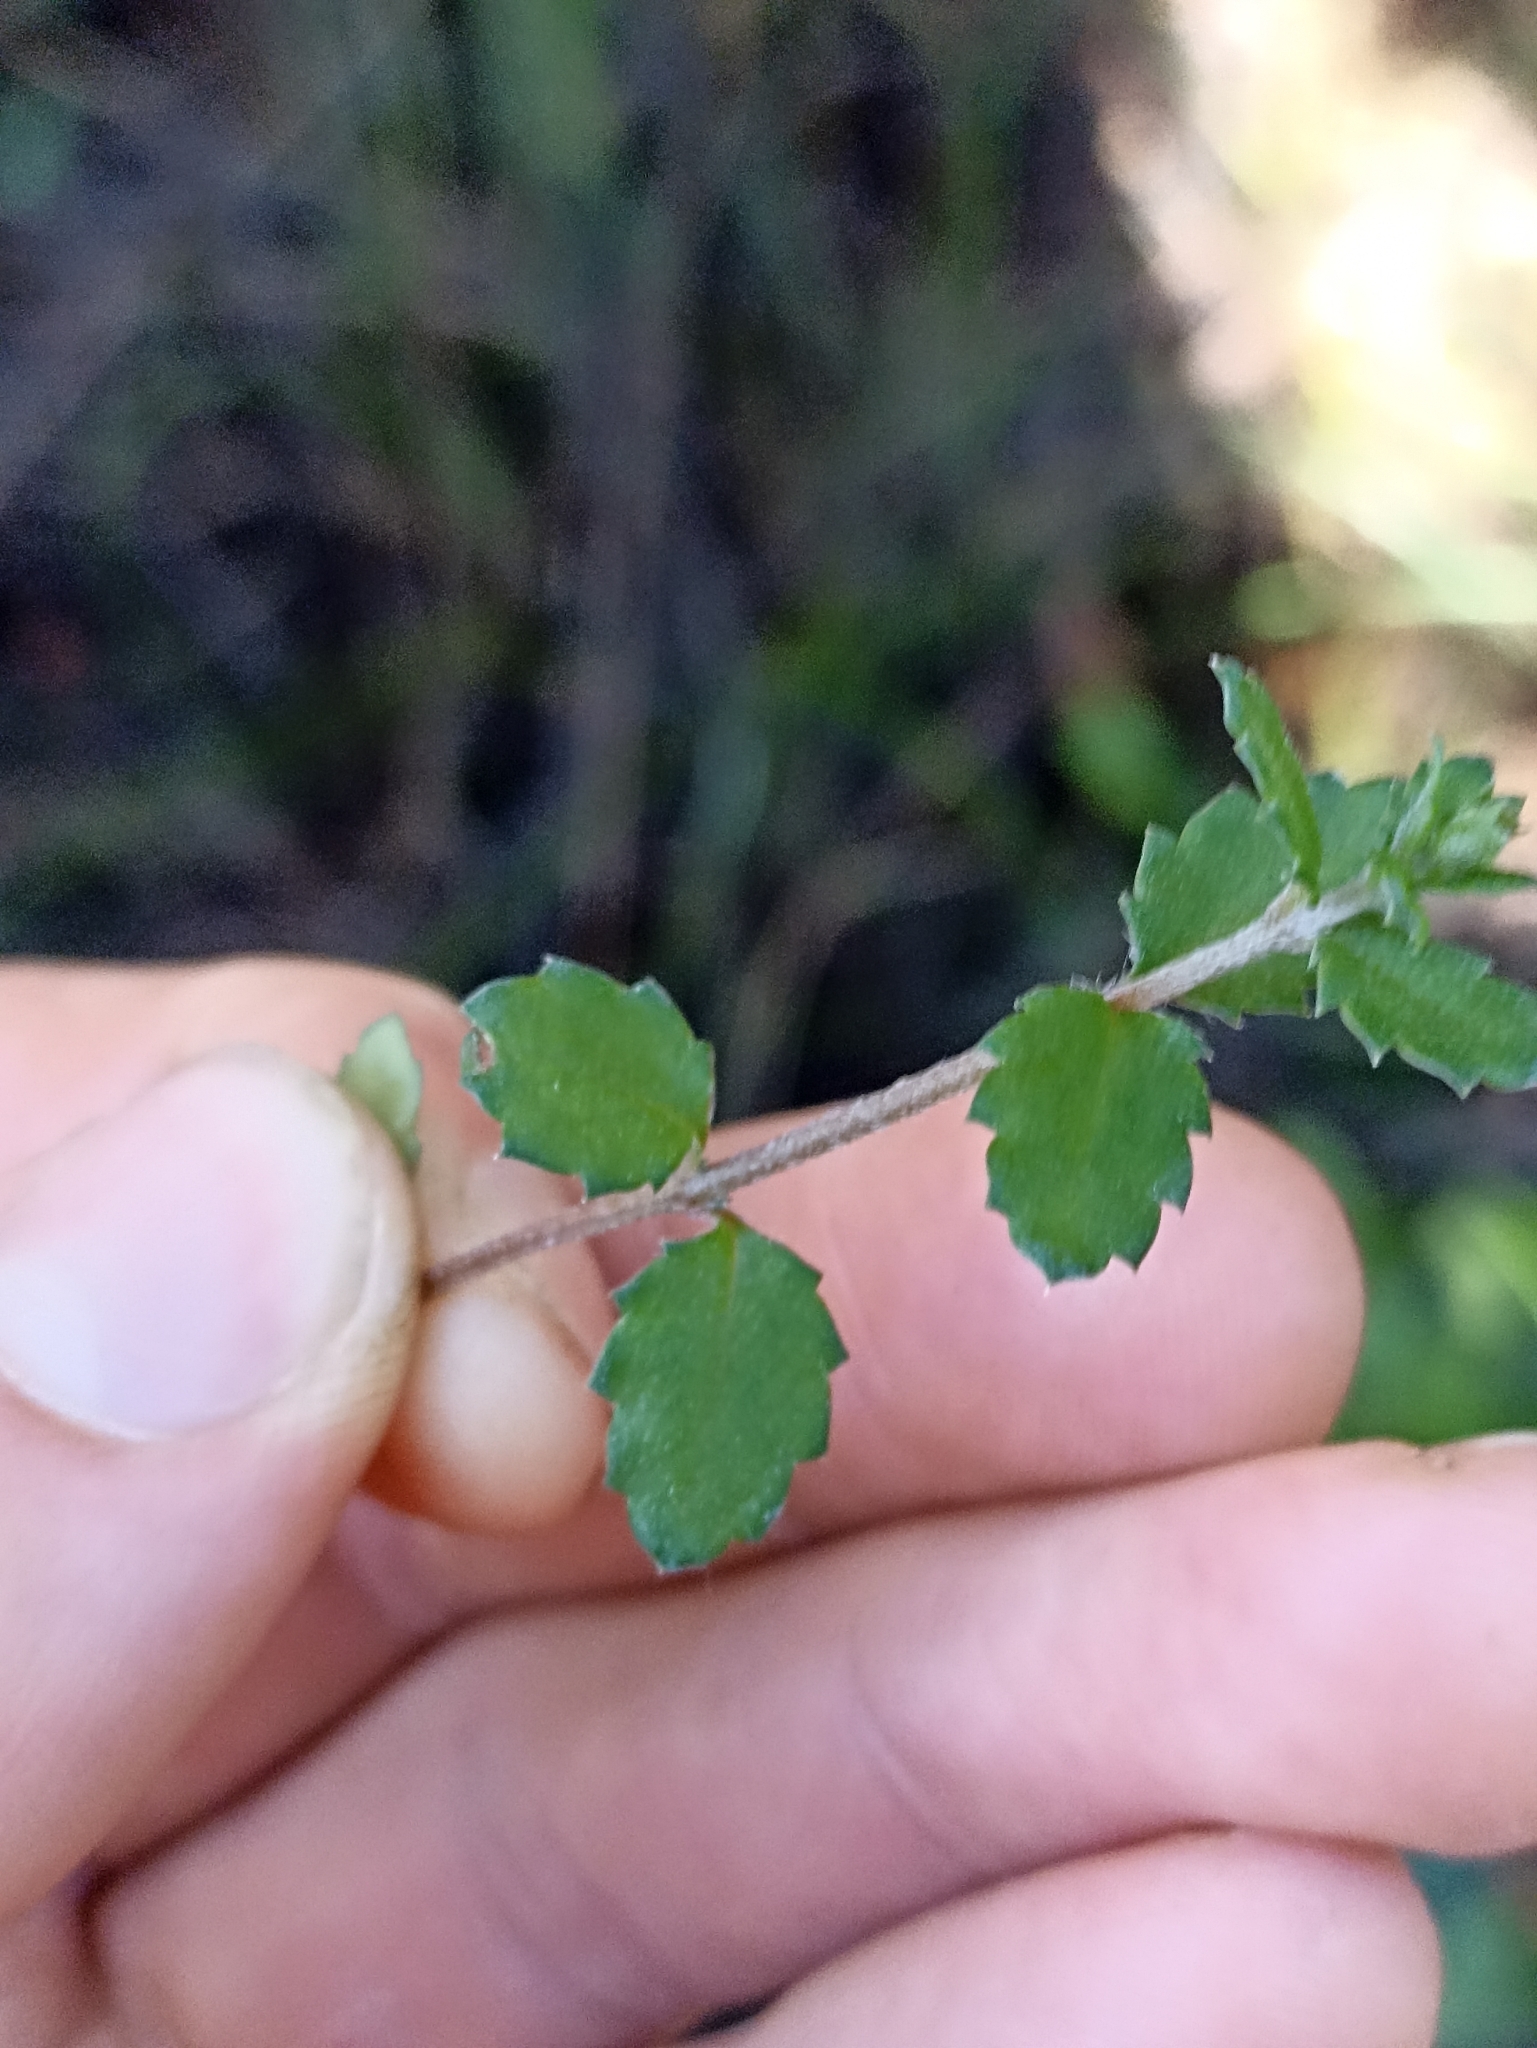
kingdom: Plantae
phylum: Tracheophyta
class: Magnoliopsida
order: Saxifragales
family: Haloragaceae
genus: Gonocarpus
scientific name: Gonocarpus aggregatus
